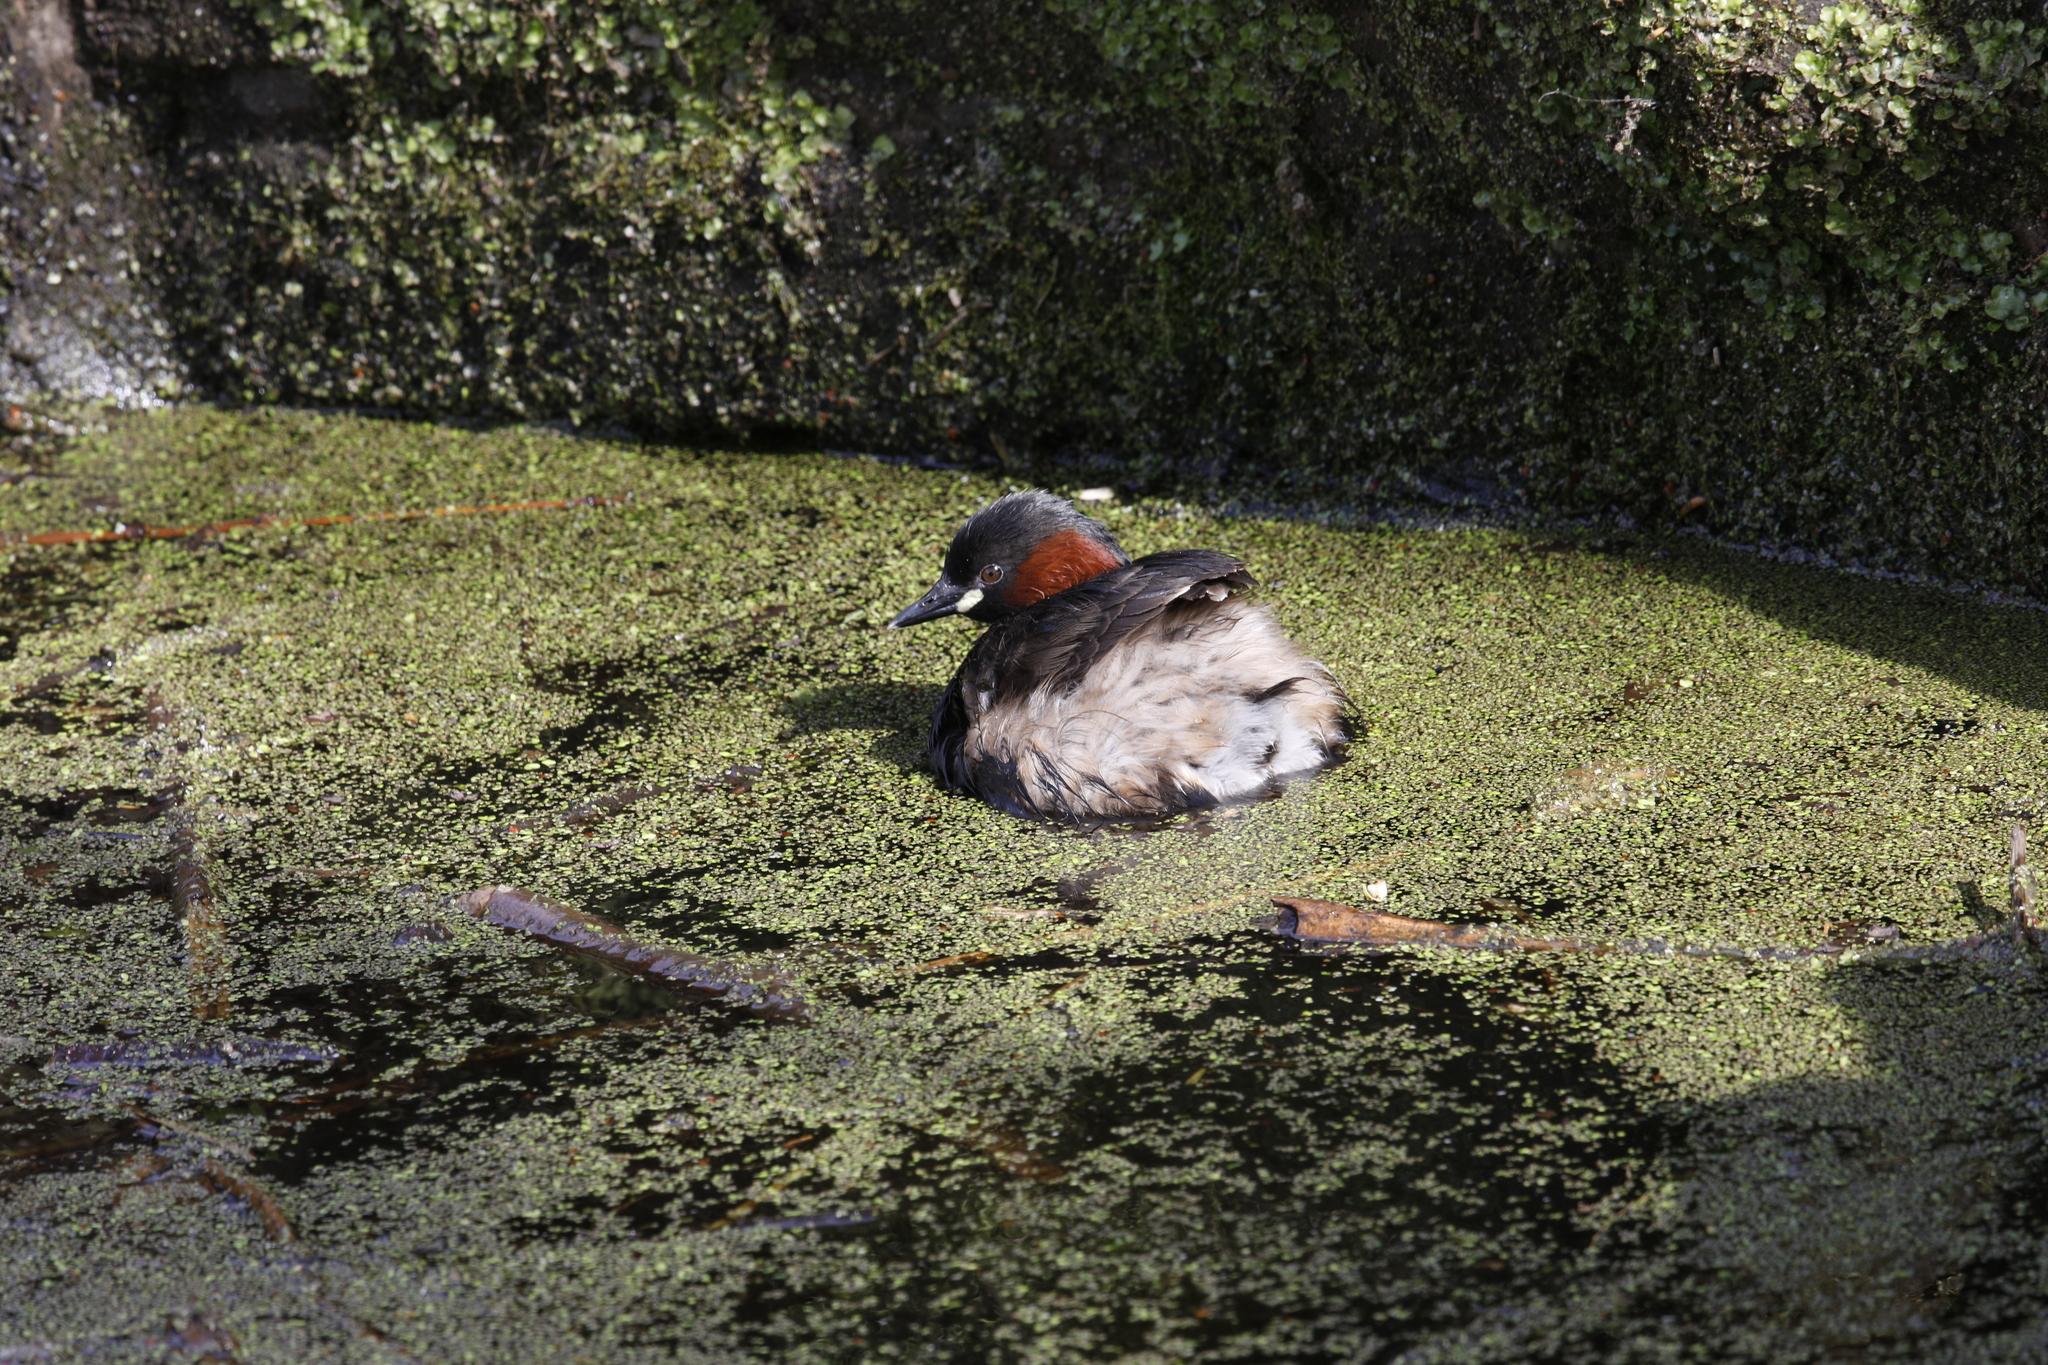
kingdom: Animalia
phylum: Chordata
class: Aves
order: Podicipediformes
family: Podicipedidae
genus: Tachybaptus
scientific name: Tachybaptus ruficollis
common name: Little grebe
